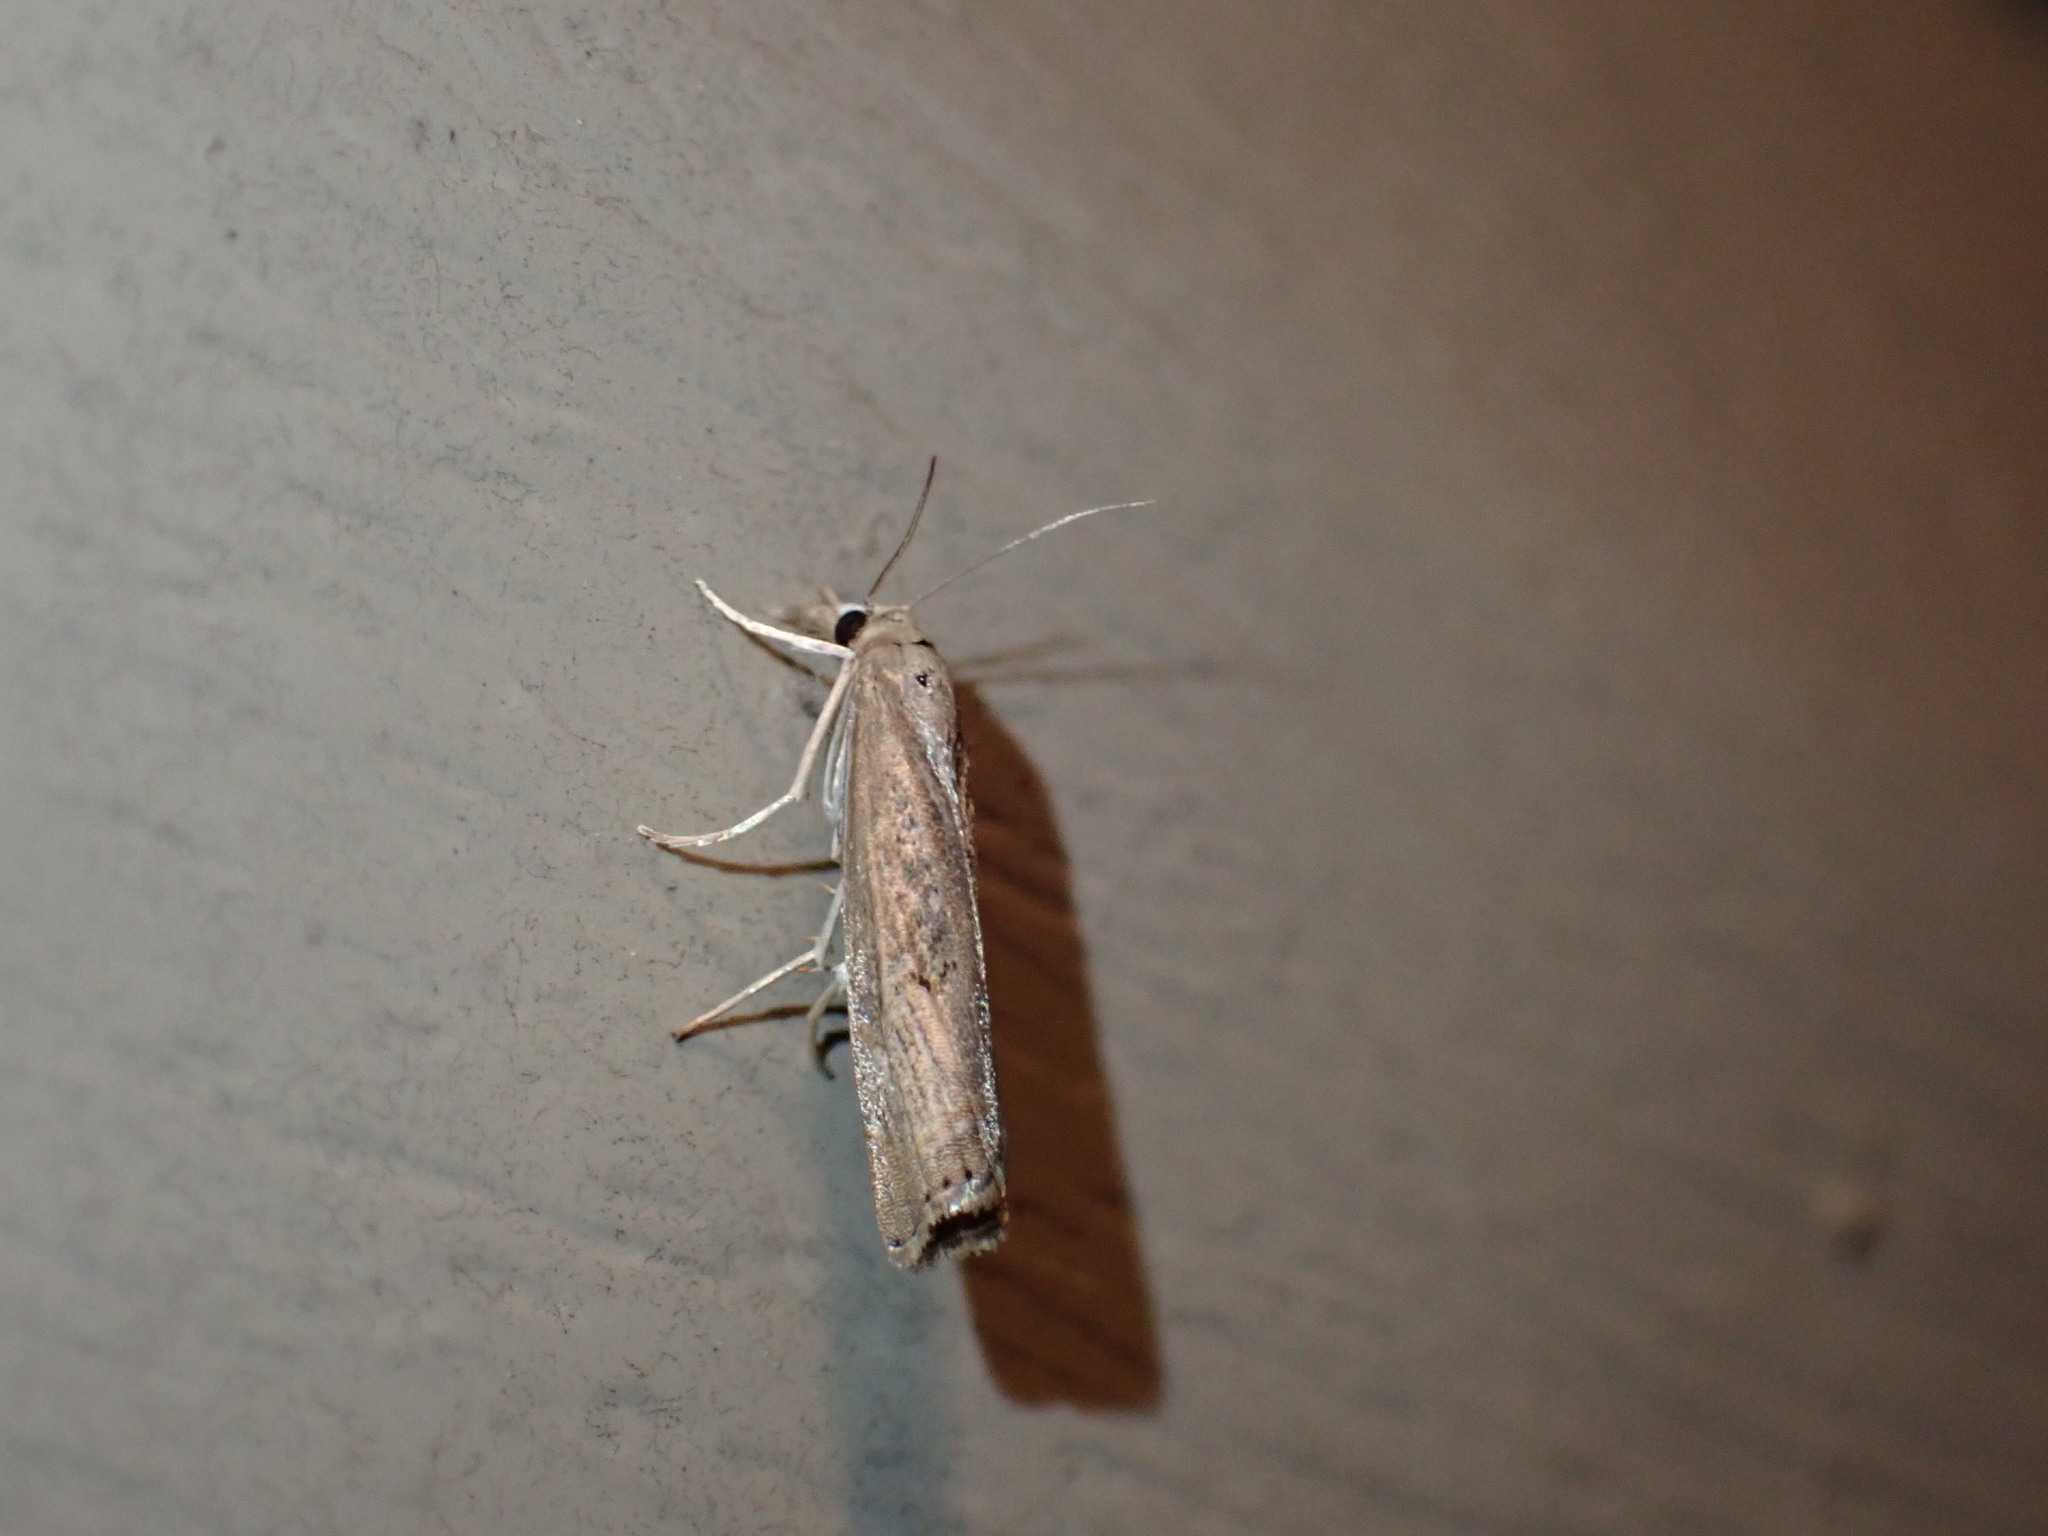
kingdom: Animalia
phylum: Arthropoda
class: Insecta
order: Lepidoptera
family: Crambidae
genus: Parapediasia
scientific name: Parapediasia teterellus
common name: Bluegrass webworm moth
